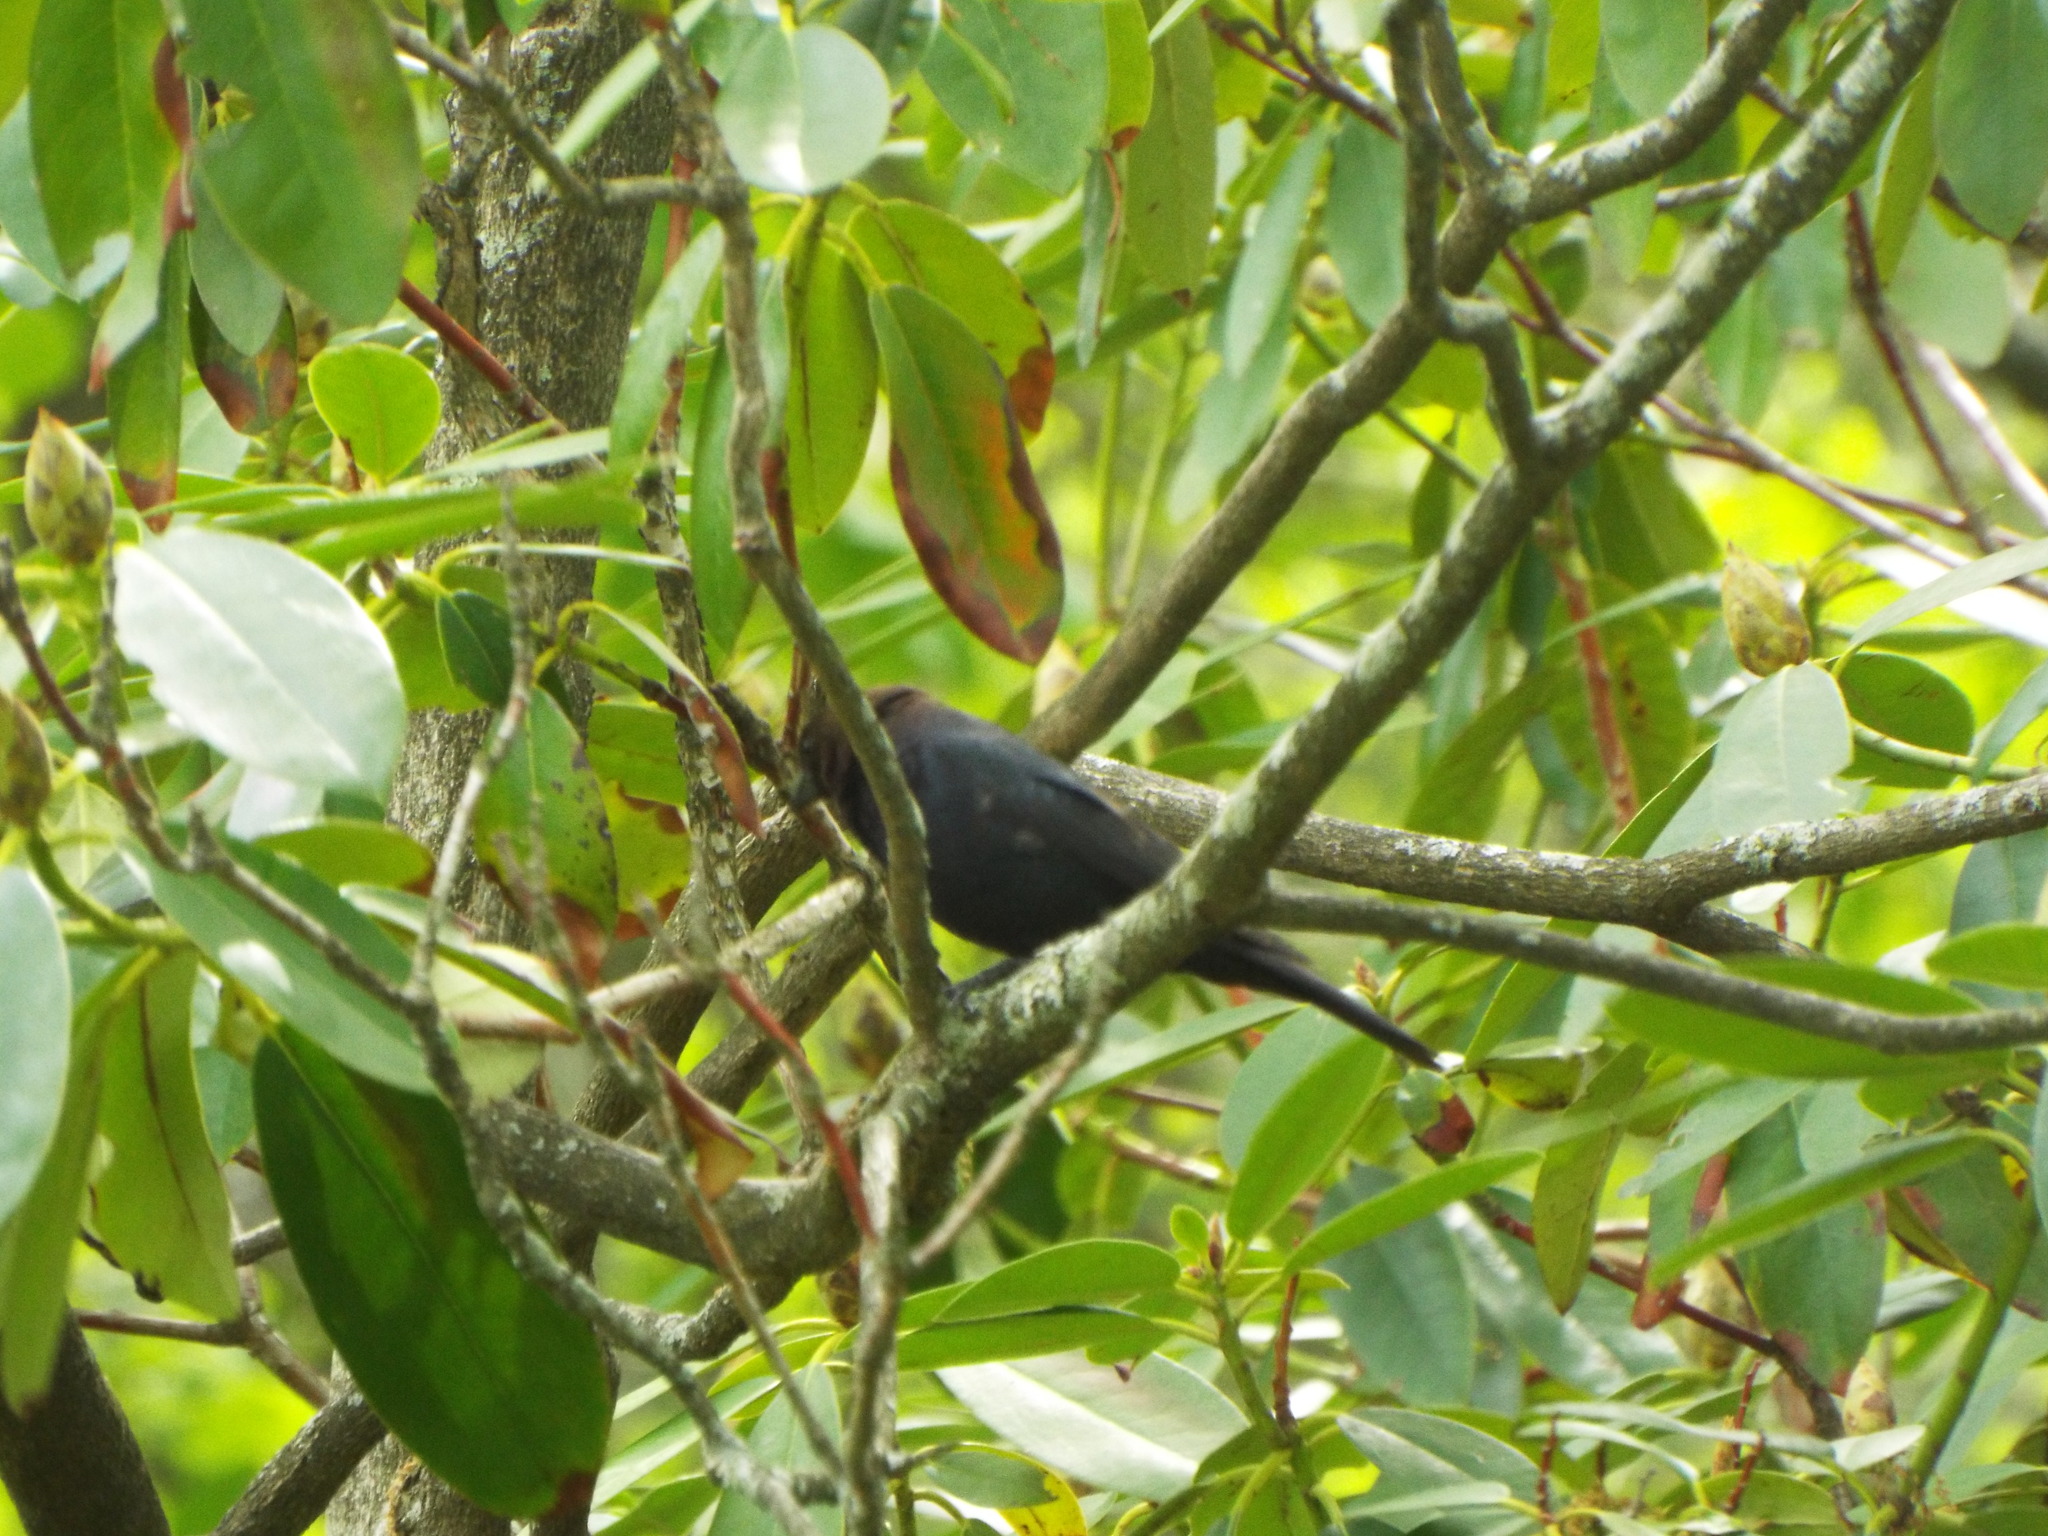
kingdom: Animalia
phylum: Chordata
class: Aves
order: Passeriformes
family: Icteridae
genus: Molothrus
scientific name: Molothrus ater
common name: Brown-headed cowbird
